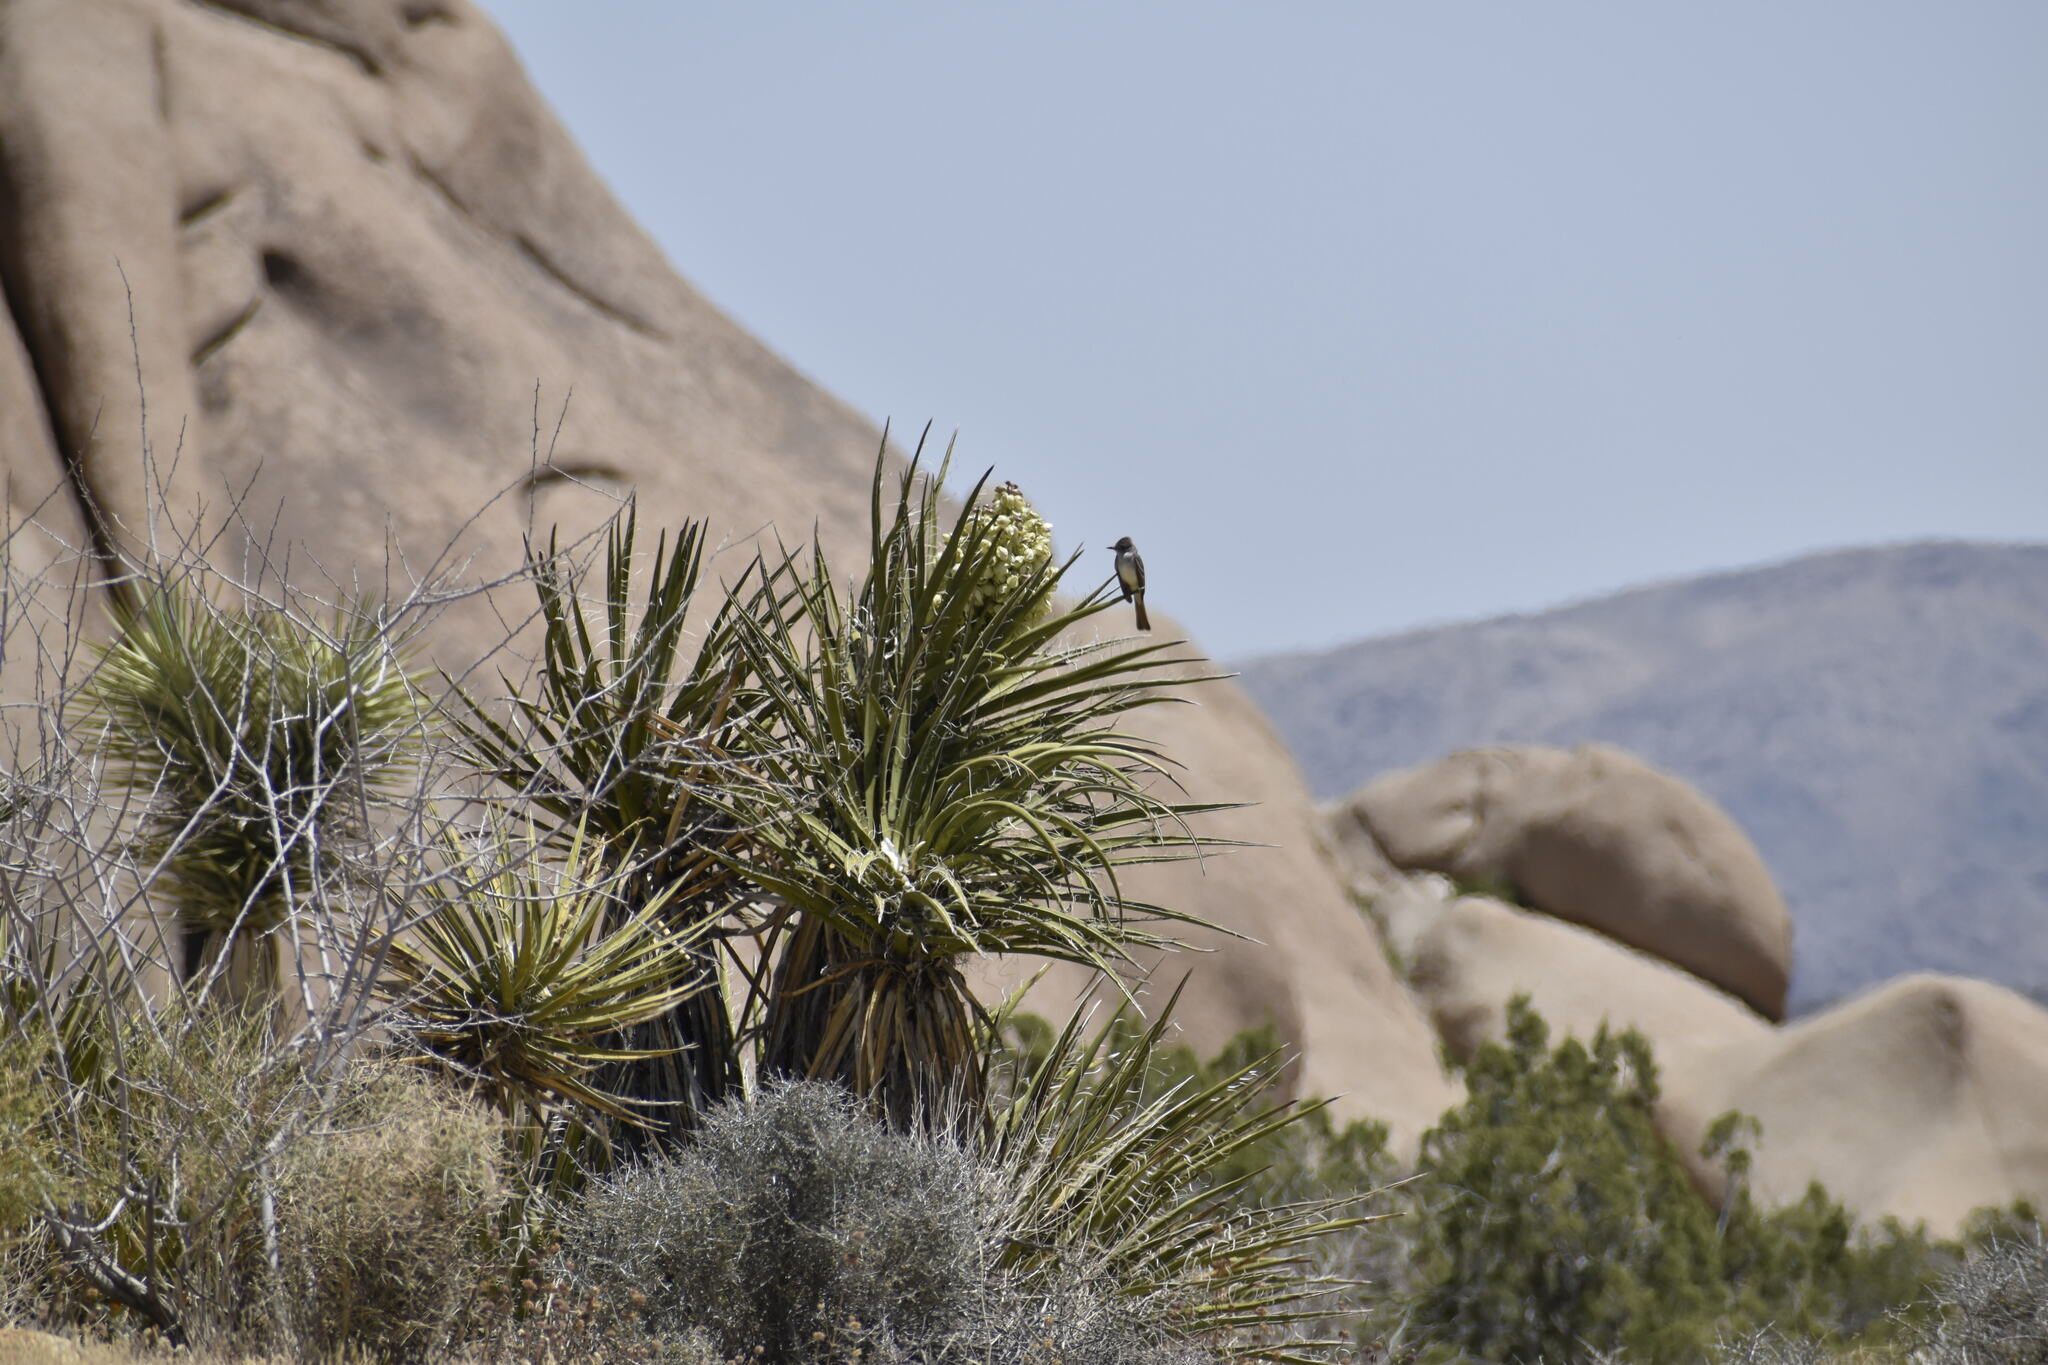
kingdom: Animalia
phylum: Chordata
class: Aves
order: Passeriformes
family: Tyrannidae
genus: Myiarchus
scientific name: Myiarchus cinerascens
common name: Ash-throated flycatcher
